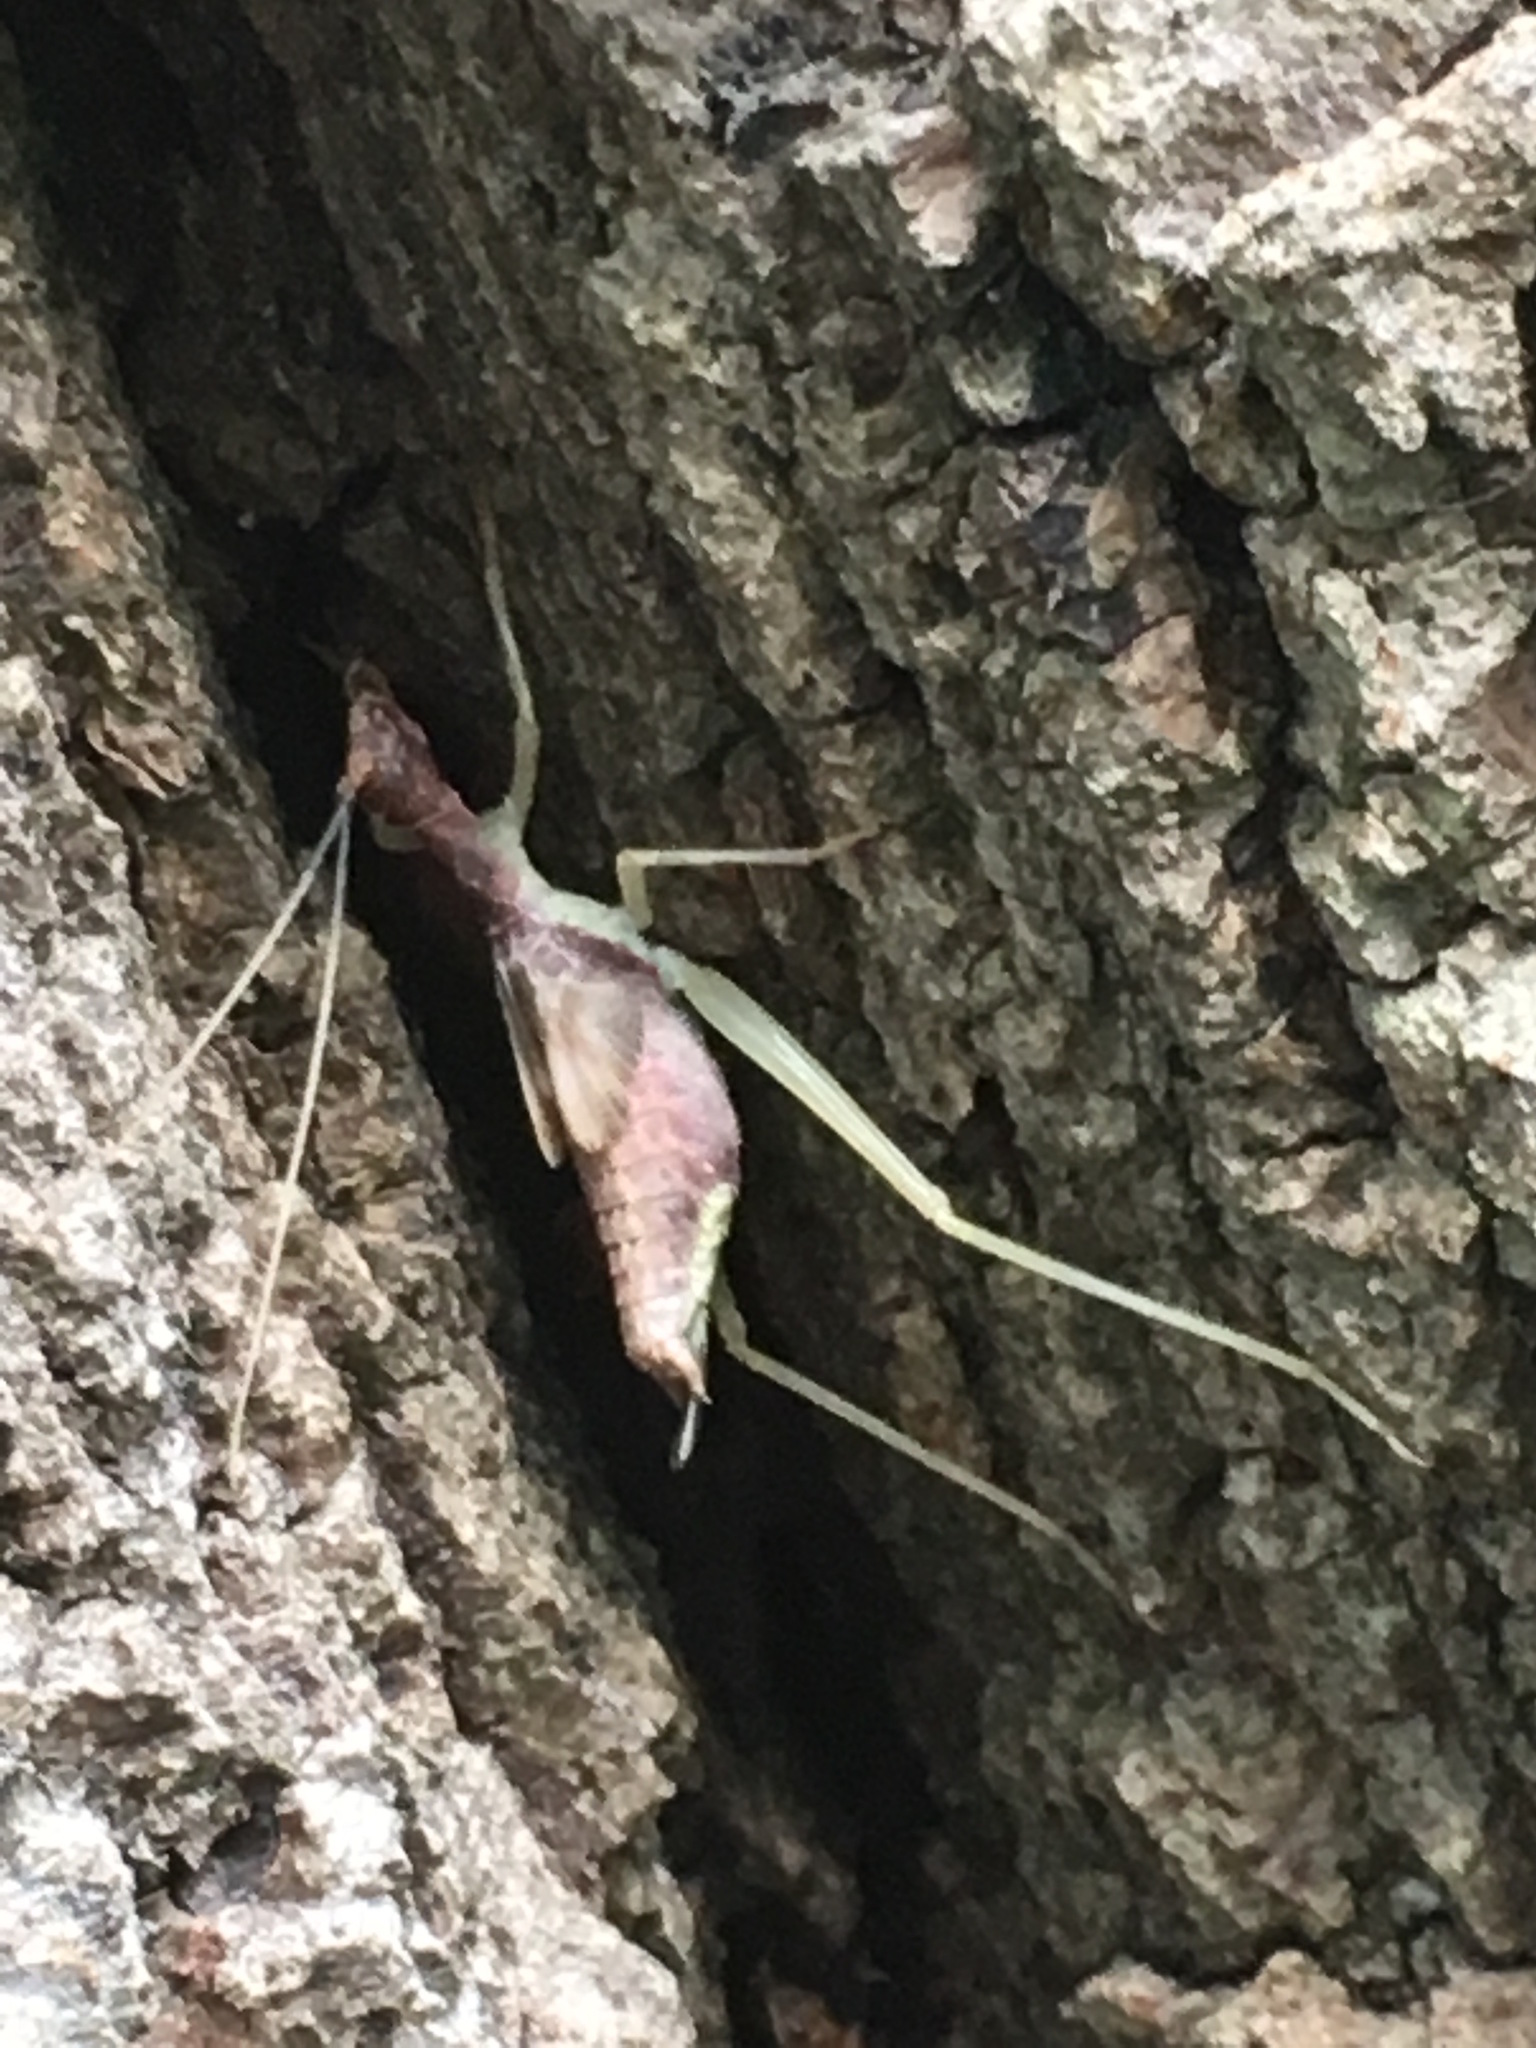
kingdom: Animalia
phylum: Arthropoda
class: Insecta
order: Orthoptera
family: Gryllidae
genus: Neoxabea
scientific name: Neoxabea bipunctata
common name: Two-spotted tree cricket
